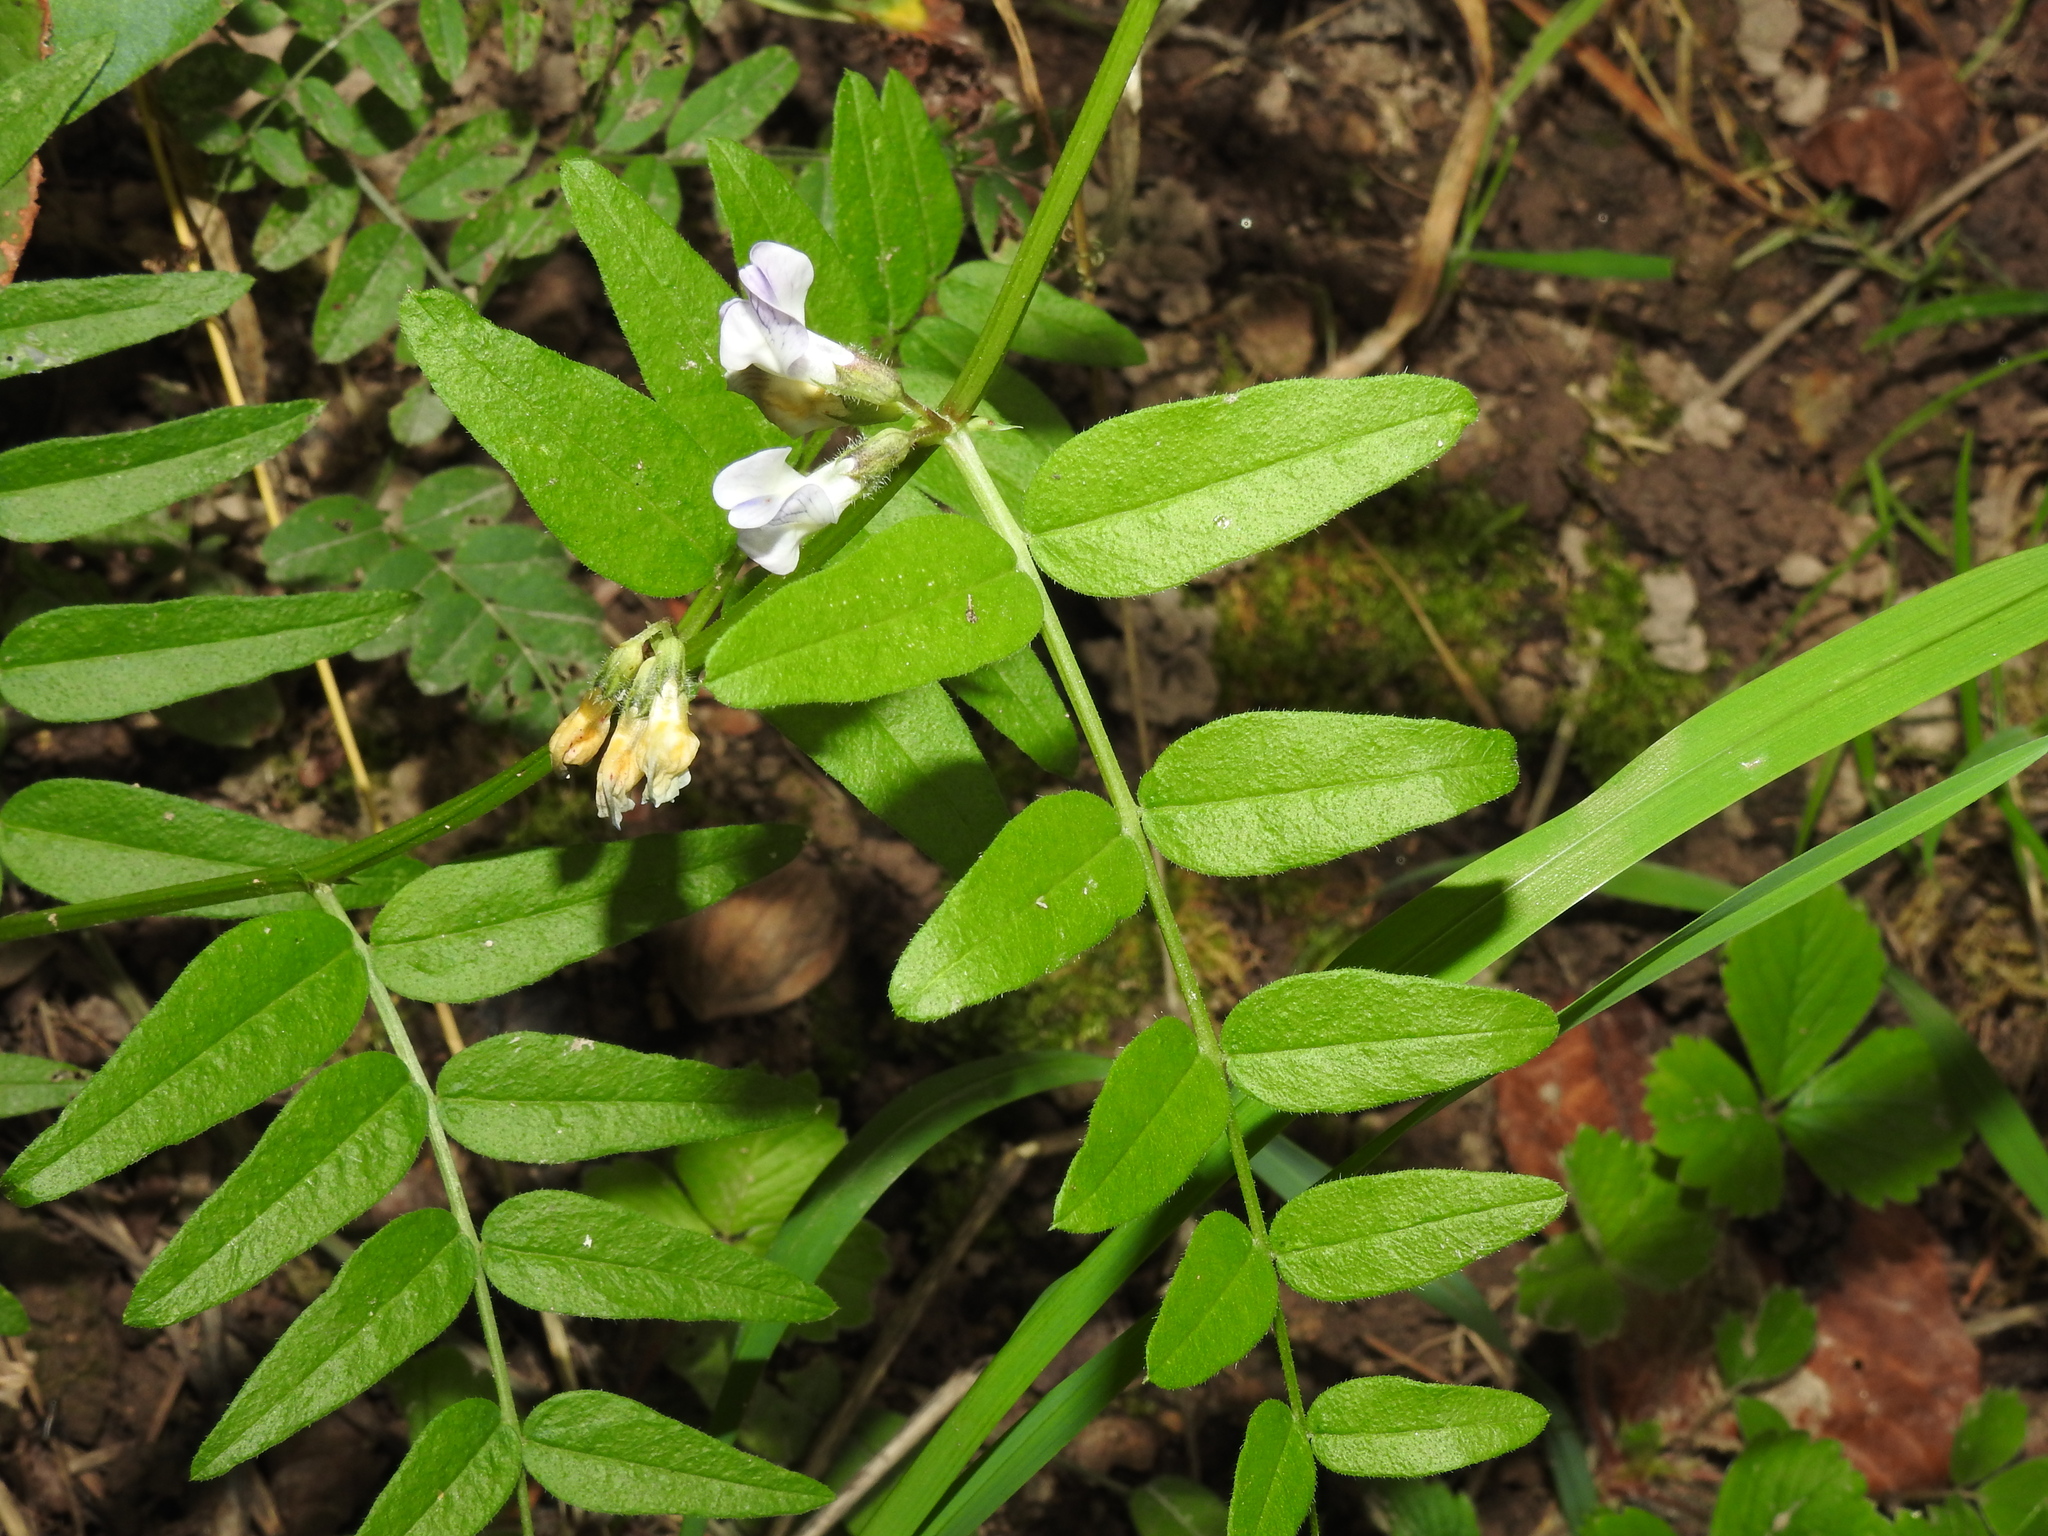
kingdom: Plantae
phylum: Tracheophyta
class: Magnoliopsida
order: Fabales
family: Fabaceae
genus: Vicia
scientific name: Vicia sepium
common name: Bush vetch
